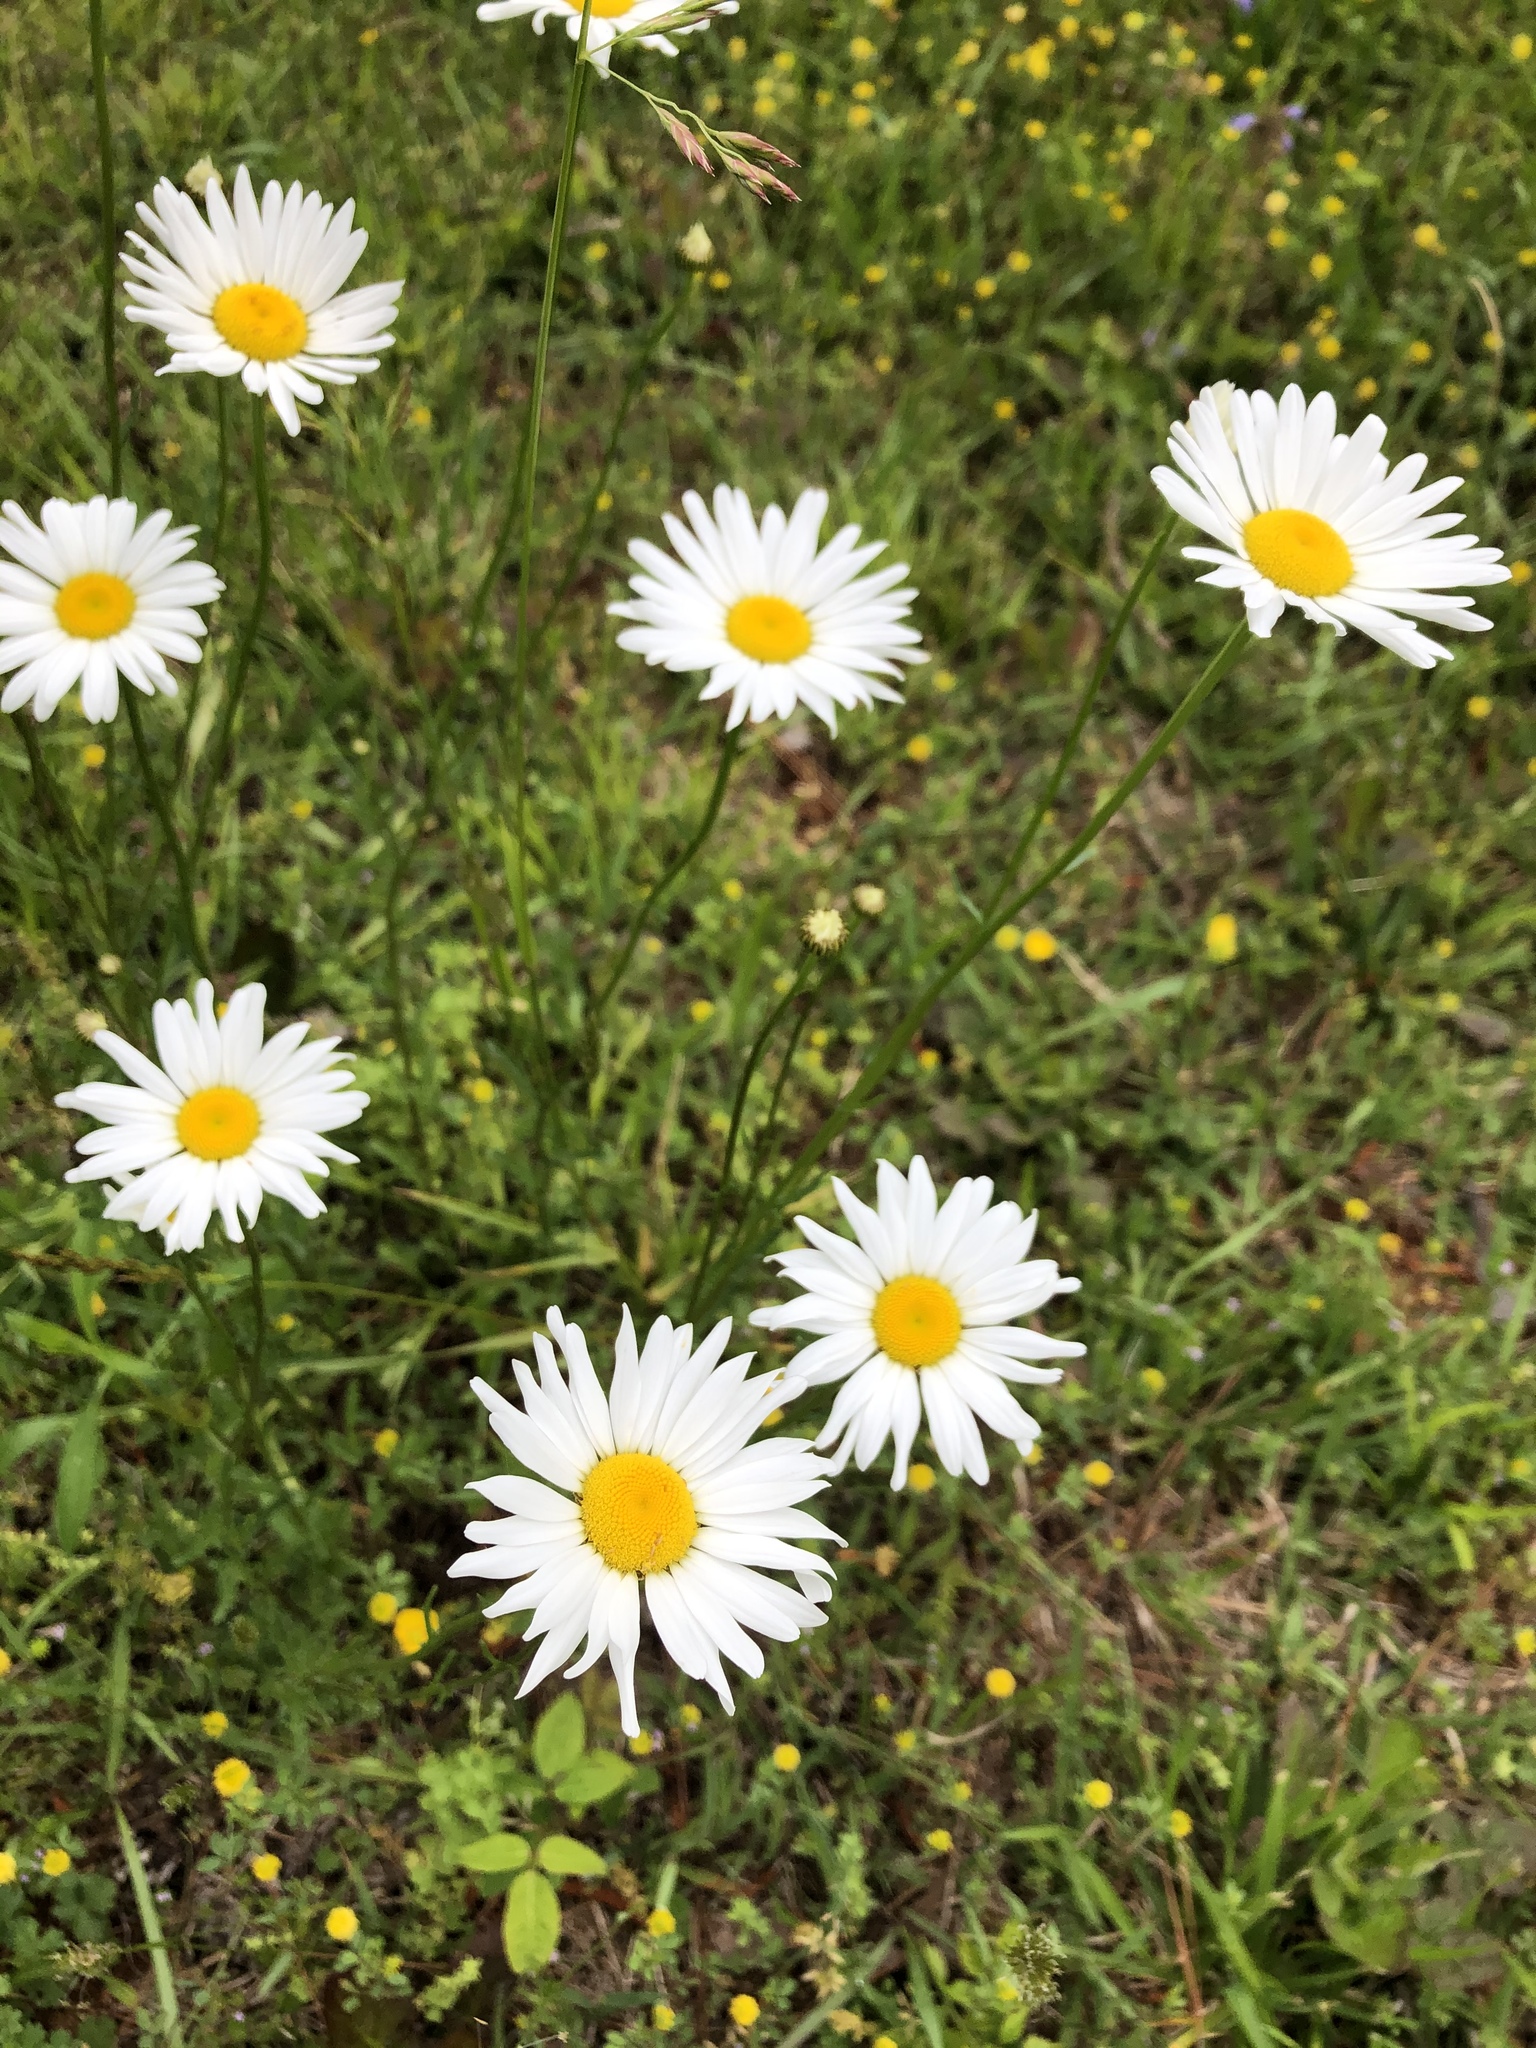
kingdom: Plantae
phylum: Tracheophyta
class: Magnoliopsida
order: Asterales
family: Asteraceae
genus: Leucanthemum
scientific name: Leucanthemum vulgare
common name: Oxeye daisy
